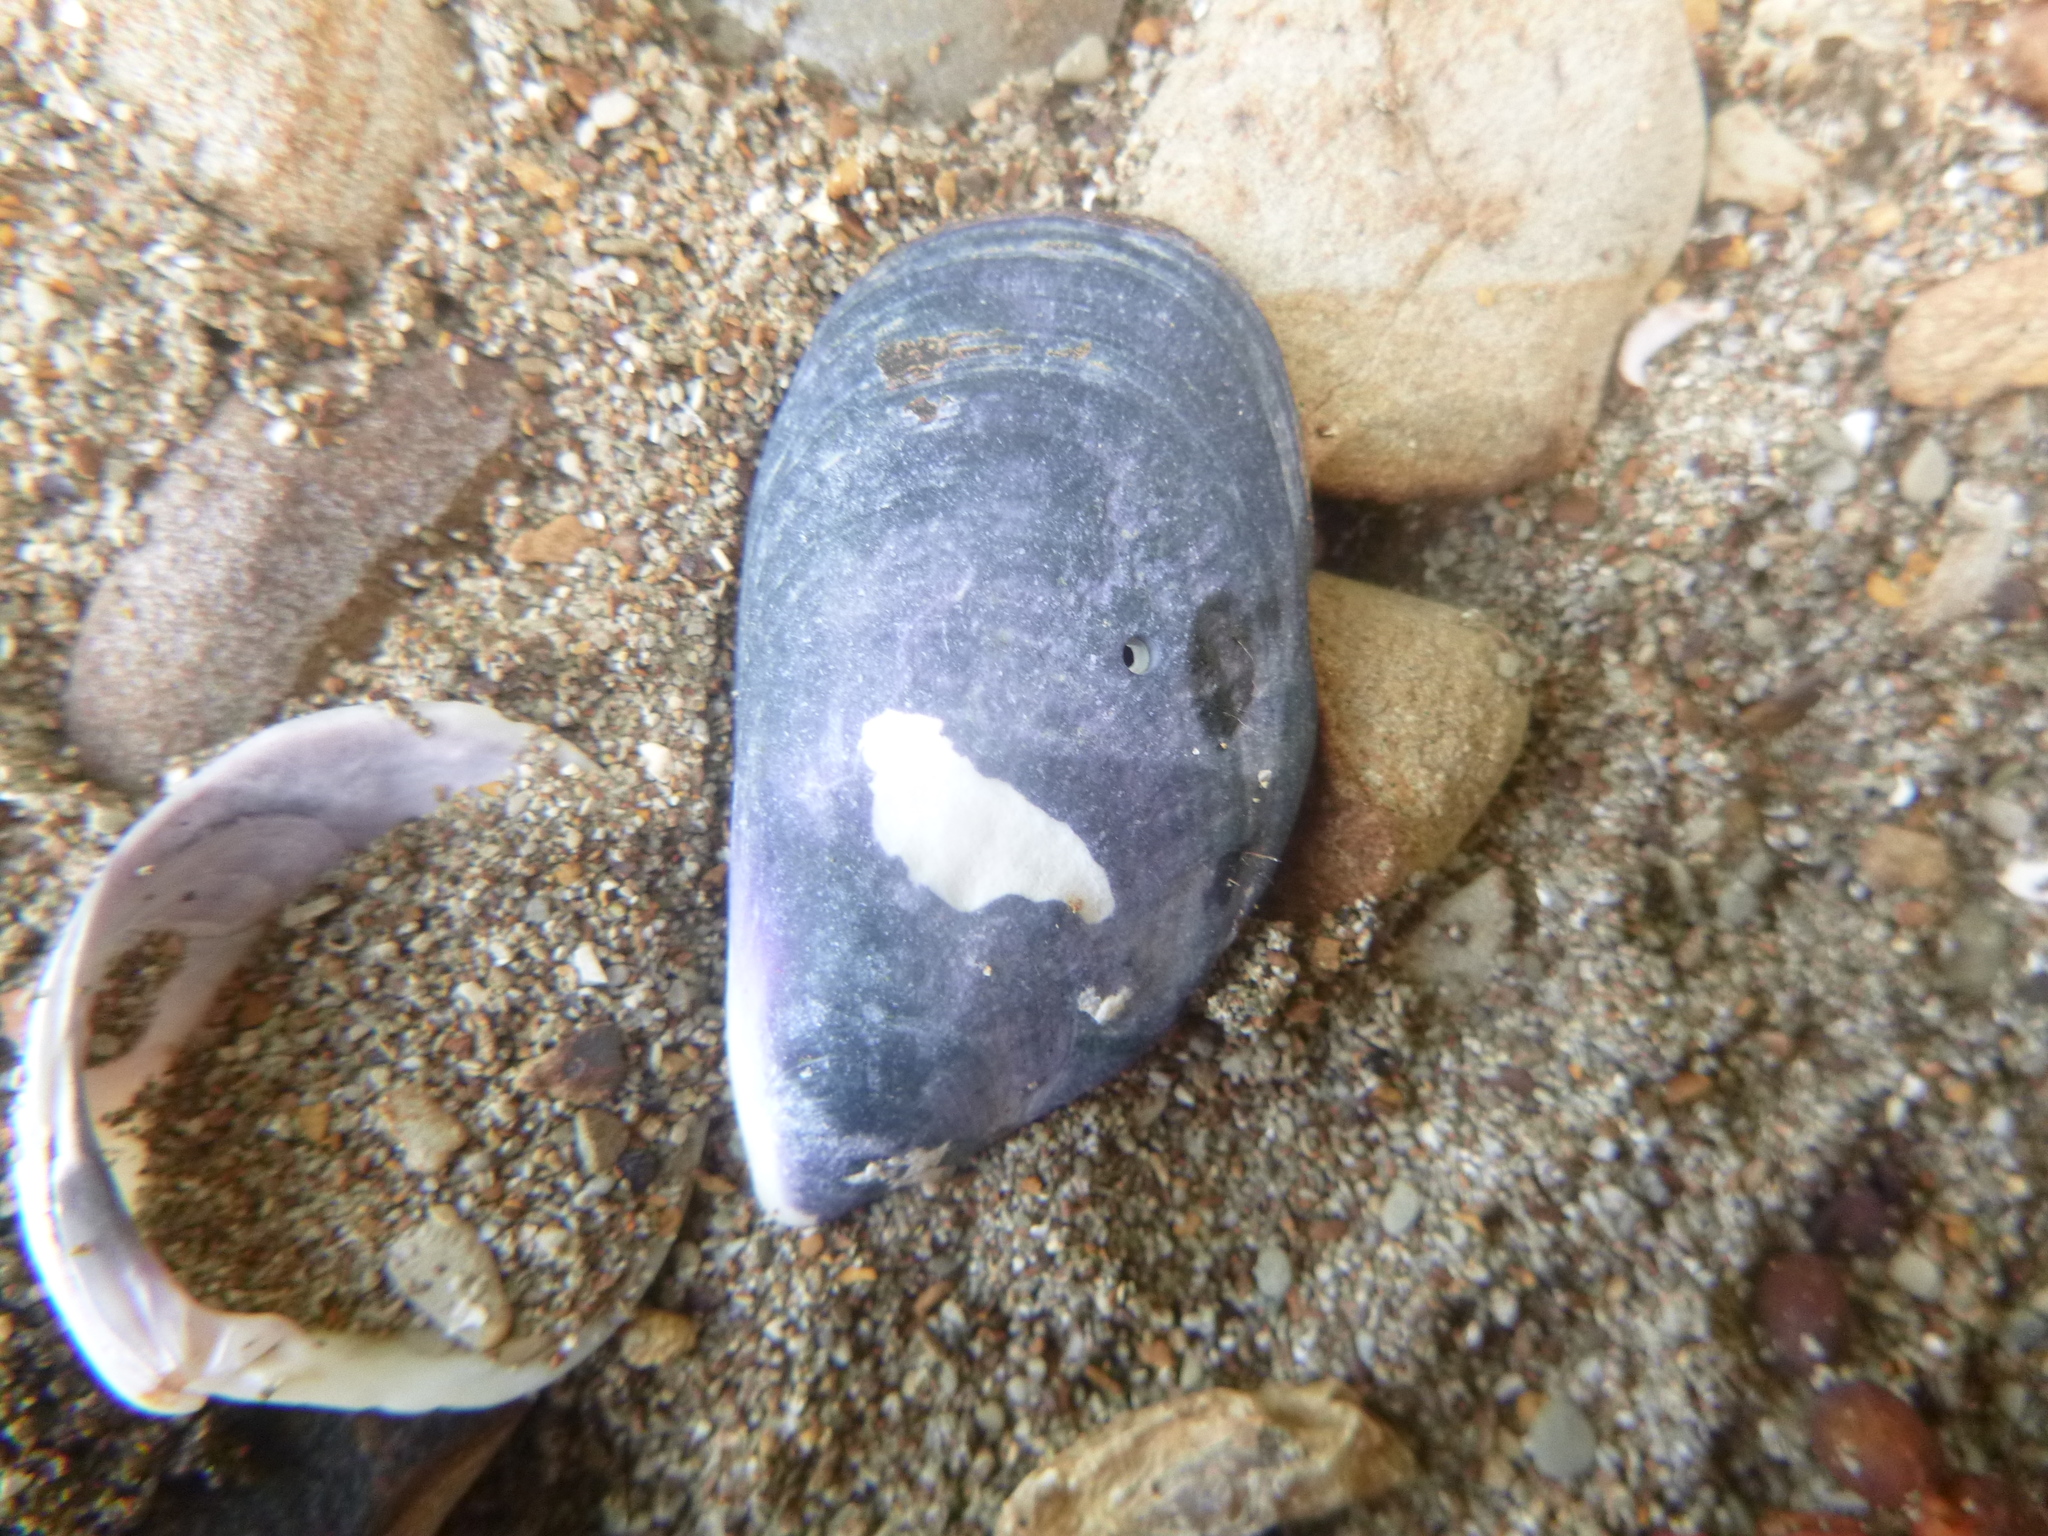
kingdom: Animalia
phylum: Mollusca
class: Bivalvia
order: Mytilida
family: Mytilidae
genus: Mytilus
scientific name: Mytilus planulatus
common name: Australian mussel
